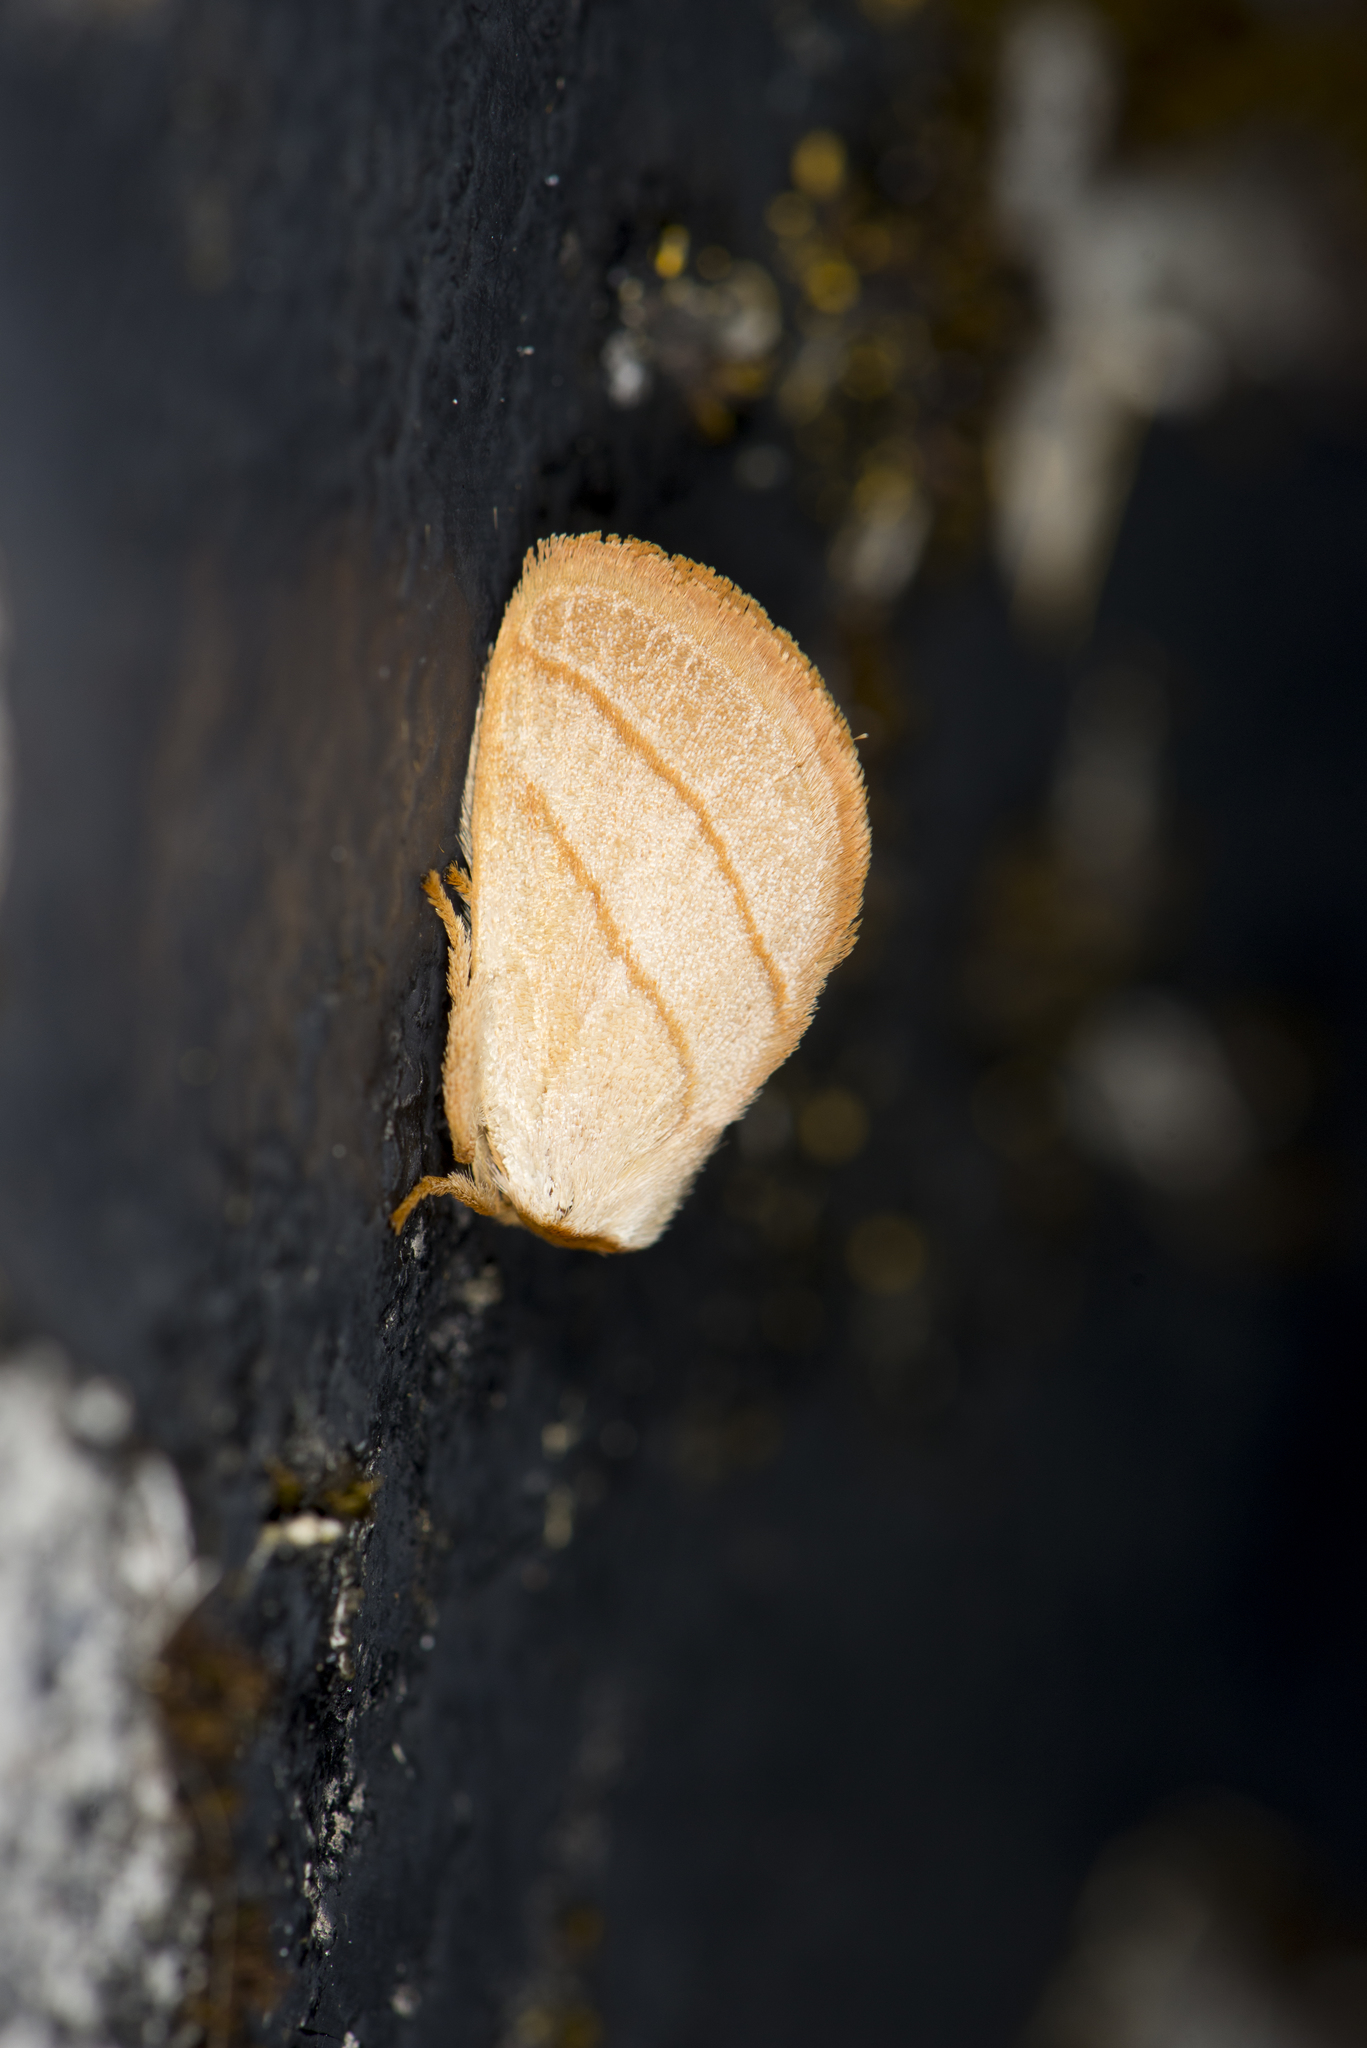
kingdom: Animalia
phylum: Arthropoda
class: Insecta
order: Lepidoptera
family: Limacodidae
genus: Cania
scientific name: Cania heppneri
